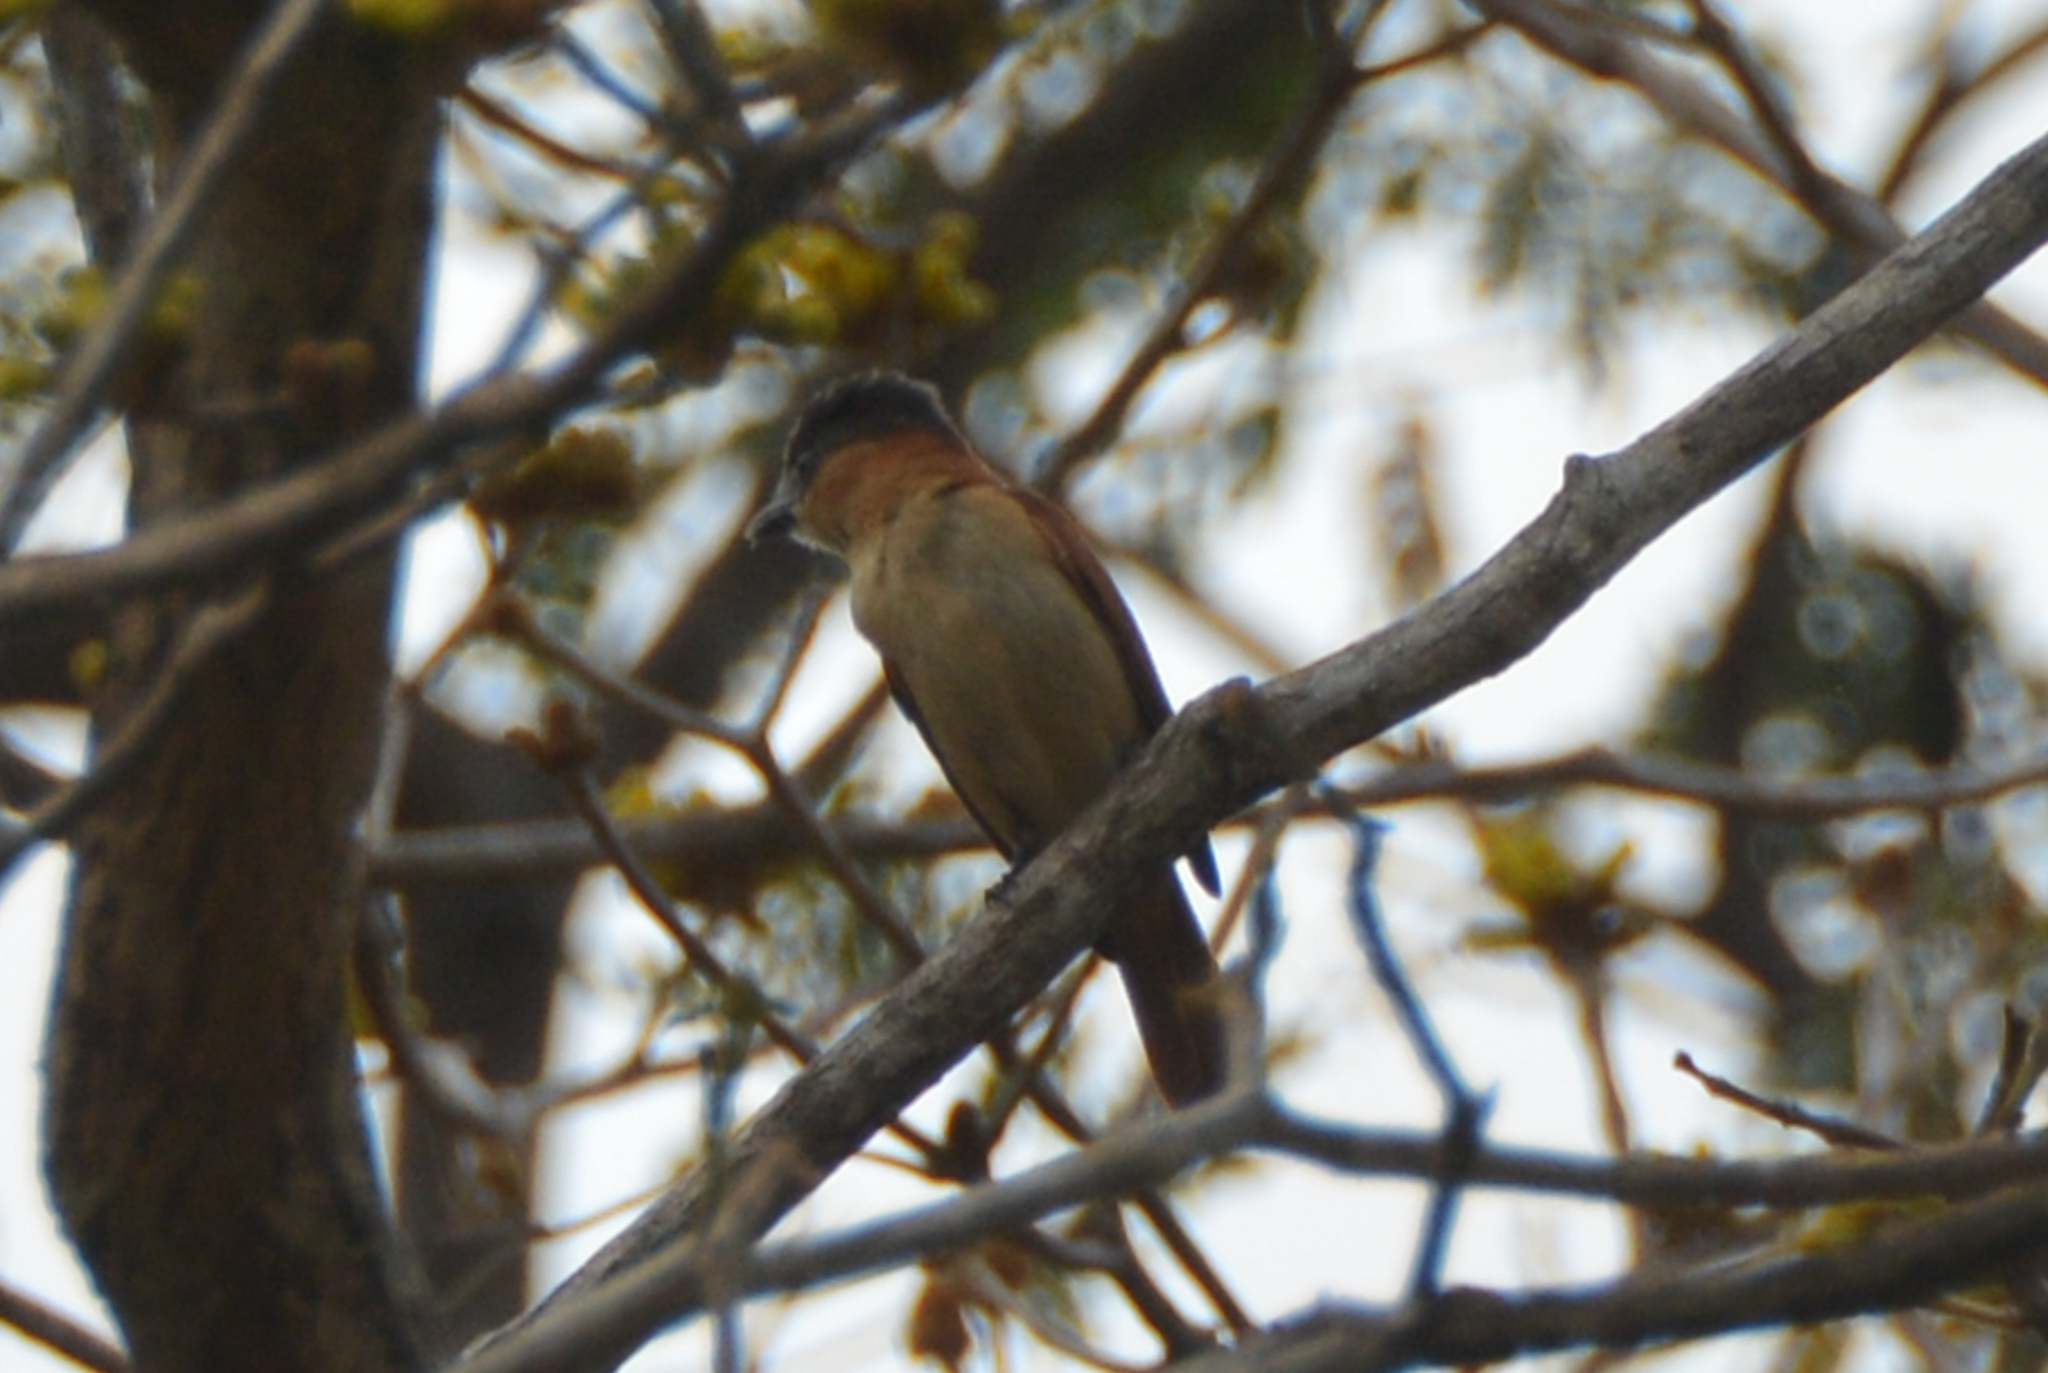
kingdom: Animalia
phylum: Chordata
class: Aves
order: Passeriformes
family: Cotingidae
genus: Pachyramphus
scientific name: Pachyramphus aglaiae
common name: Rose-throated becard
